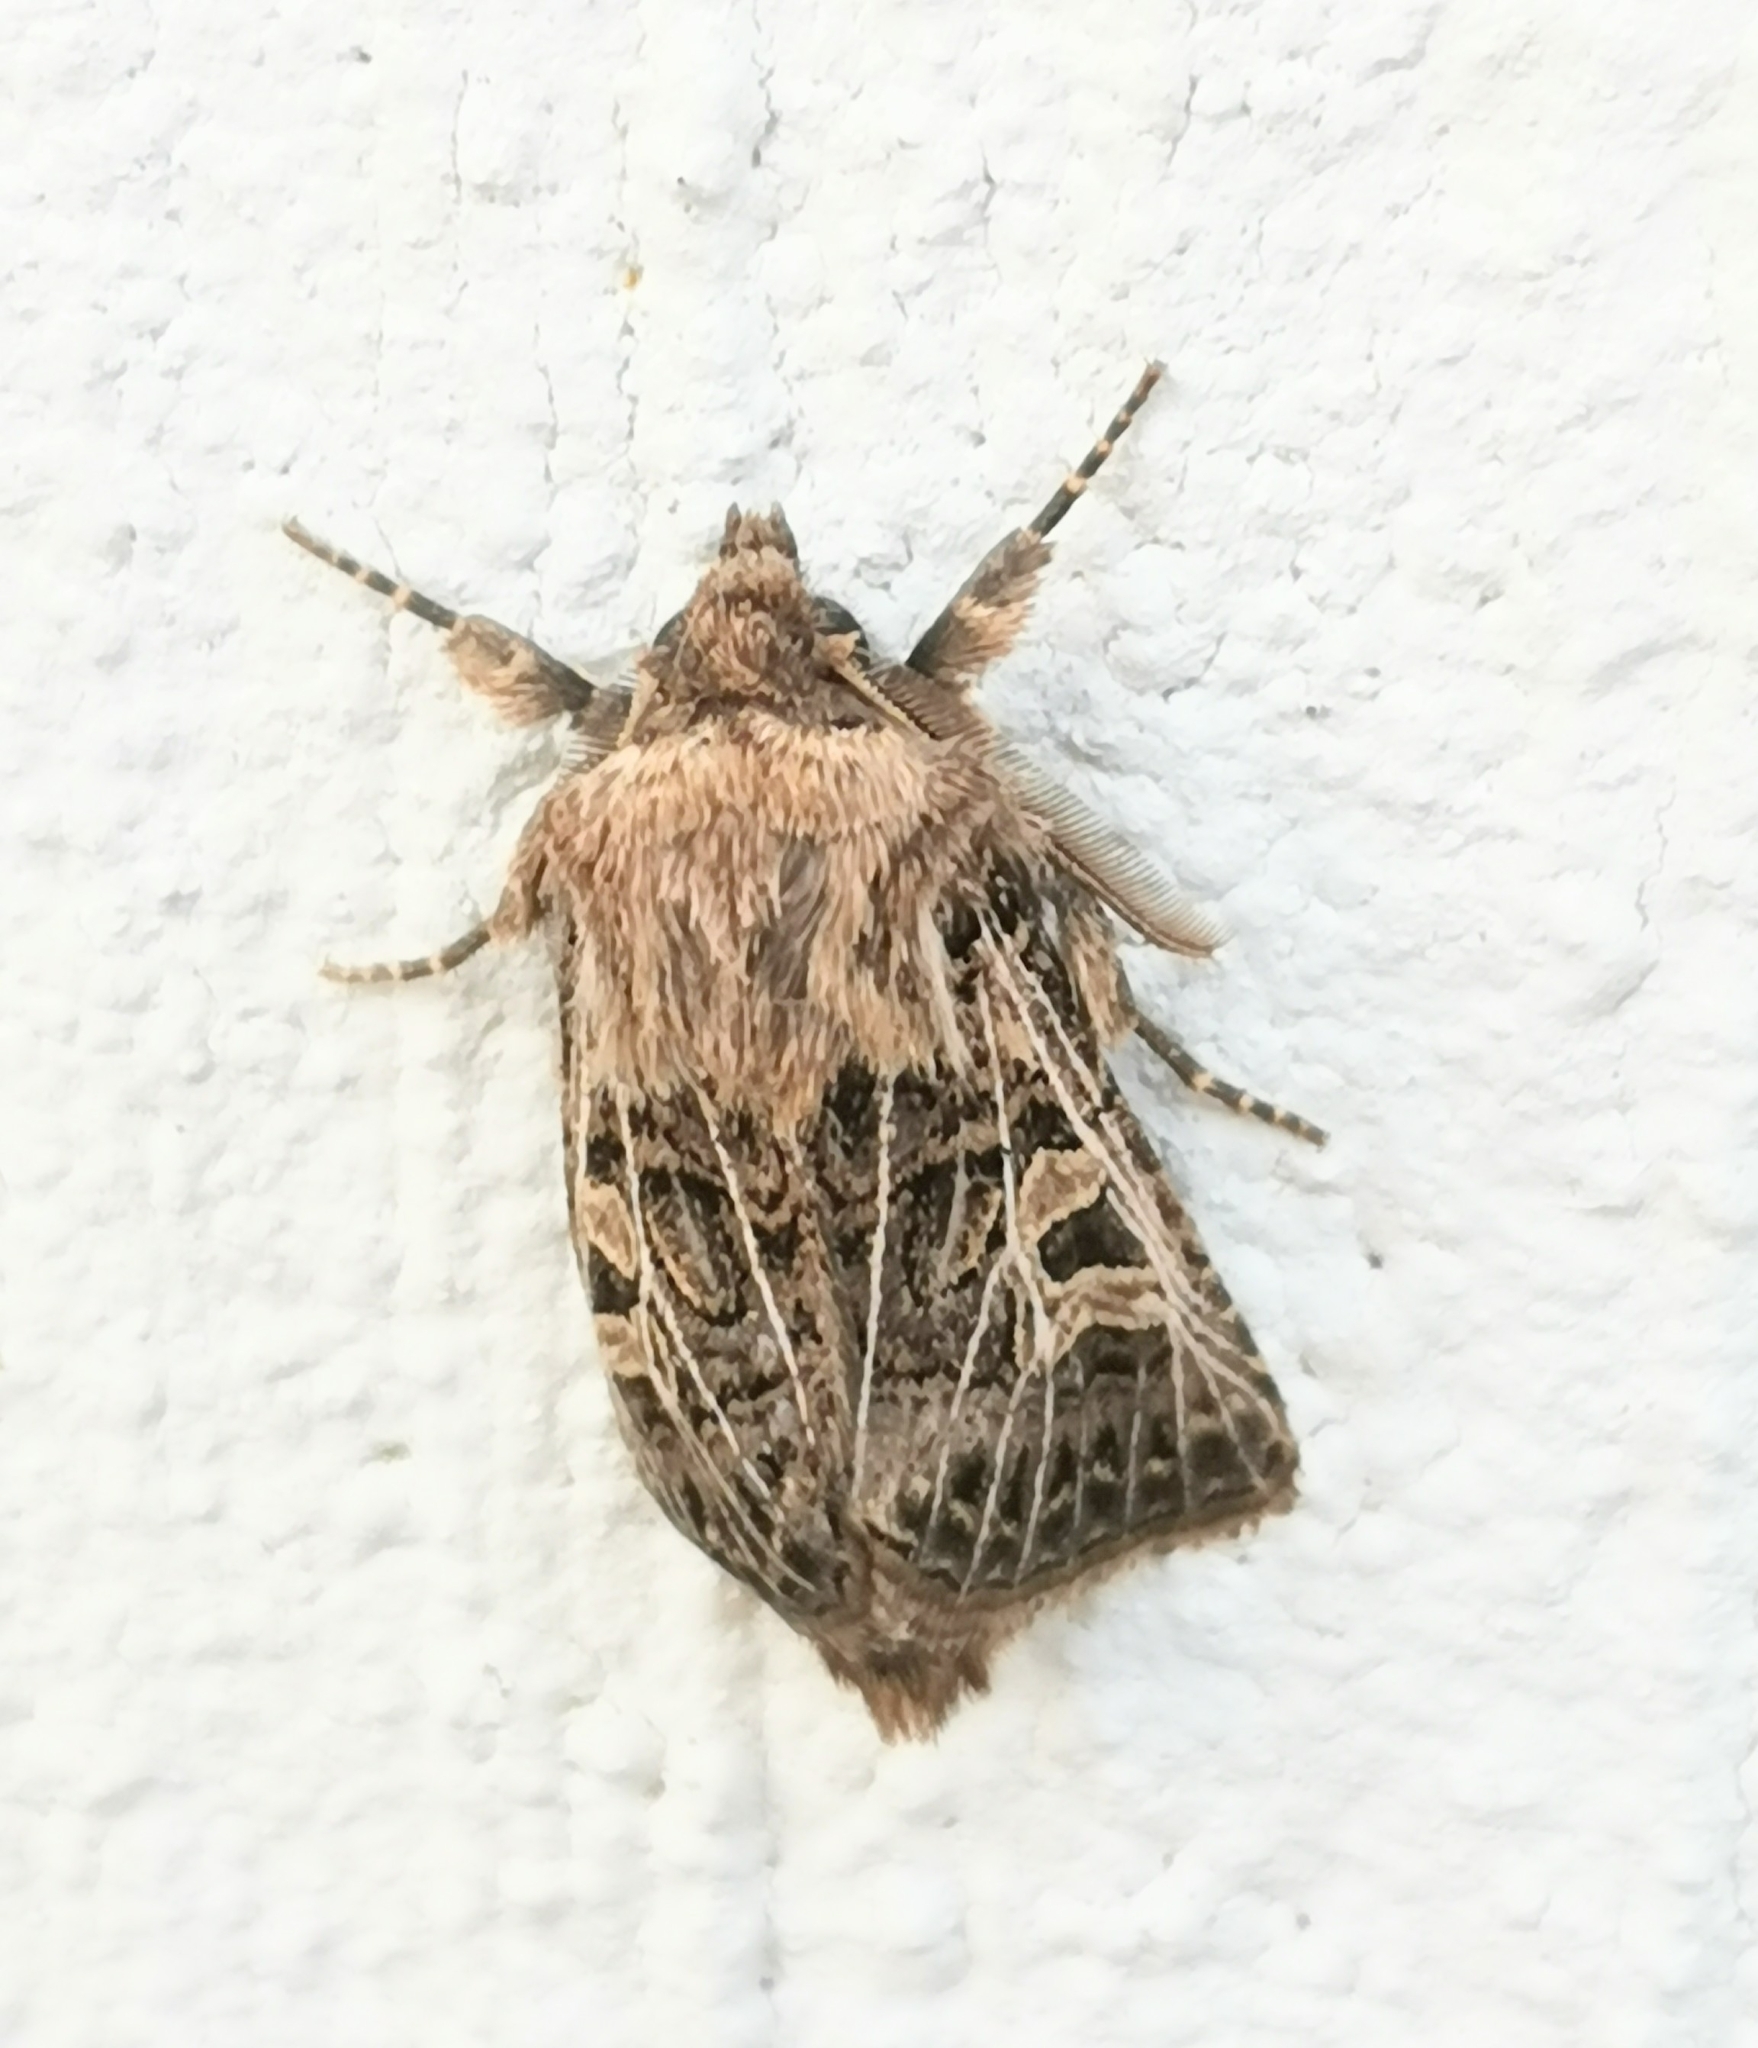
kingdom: Animalia
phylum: Arthropoda
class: Insecta
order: Lepidoptera
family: Noctuidae
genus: Tholera
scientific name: Tholera decimalis
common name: Feathered gothic
